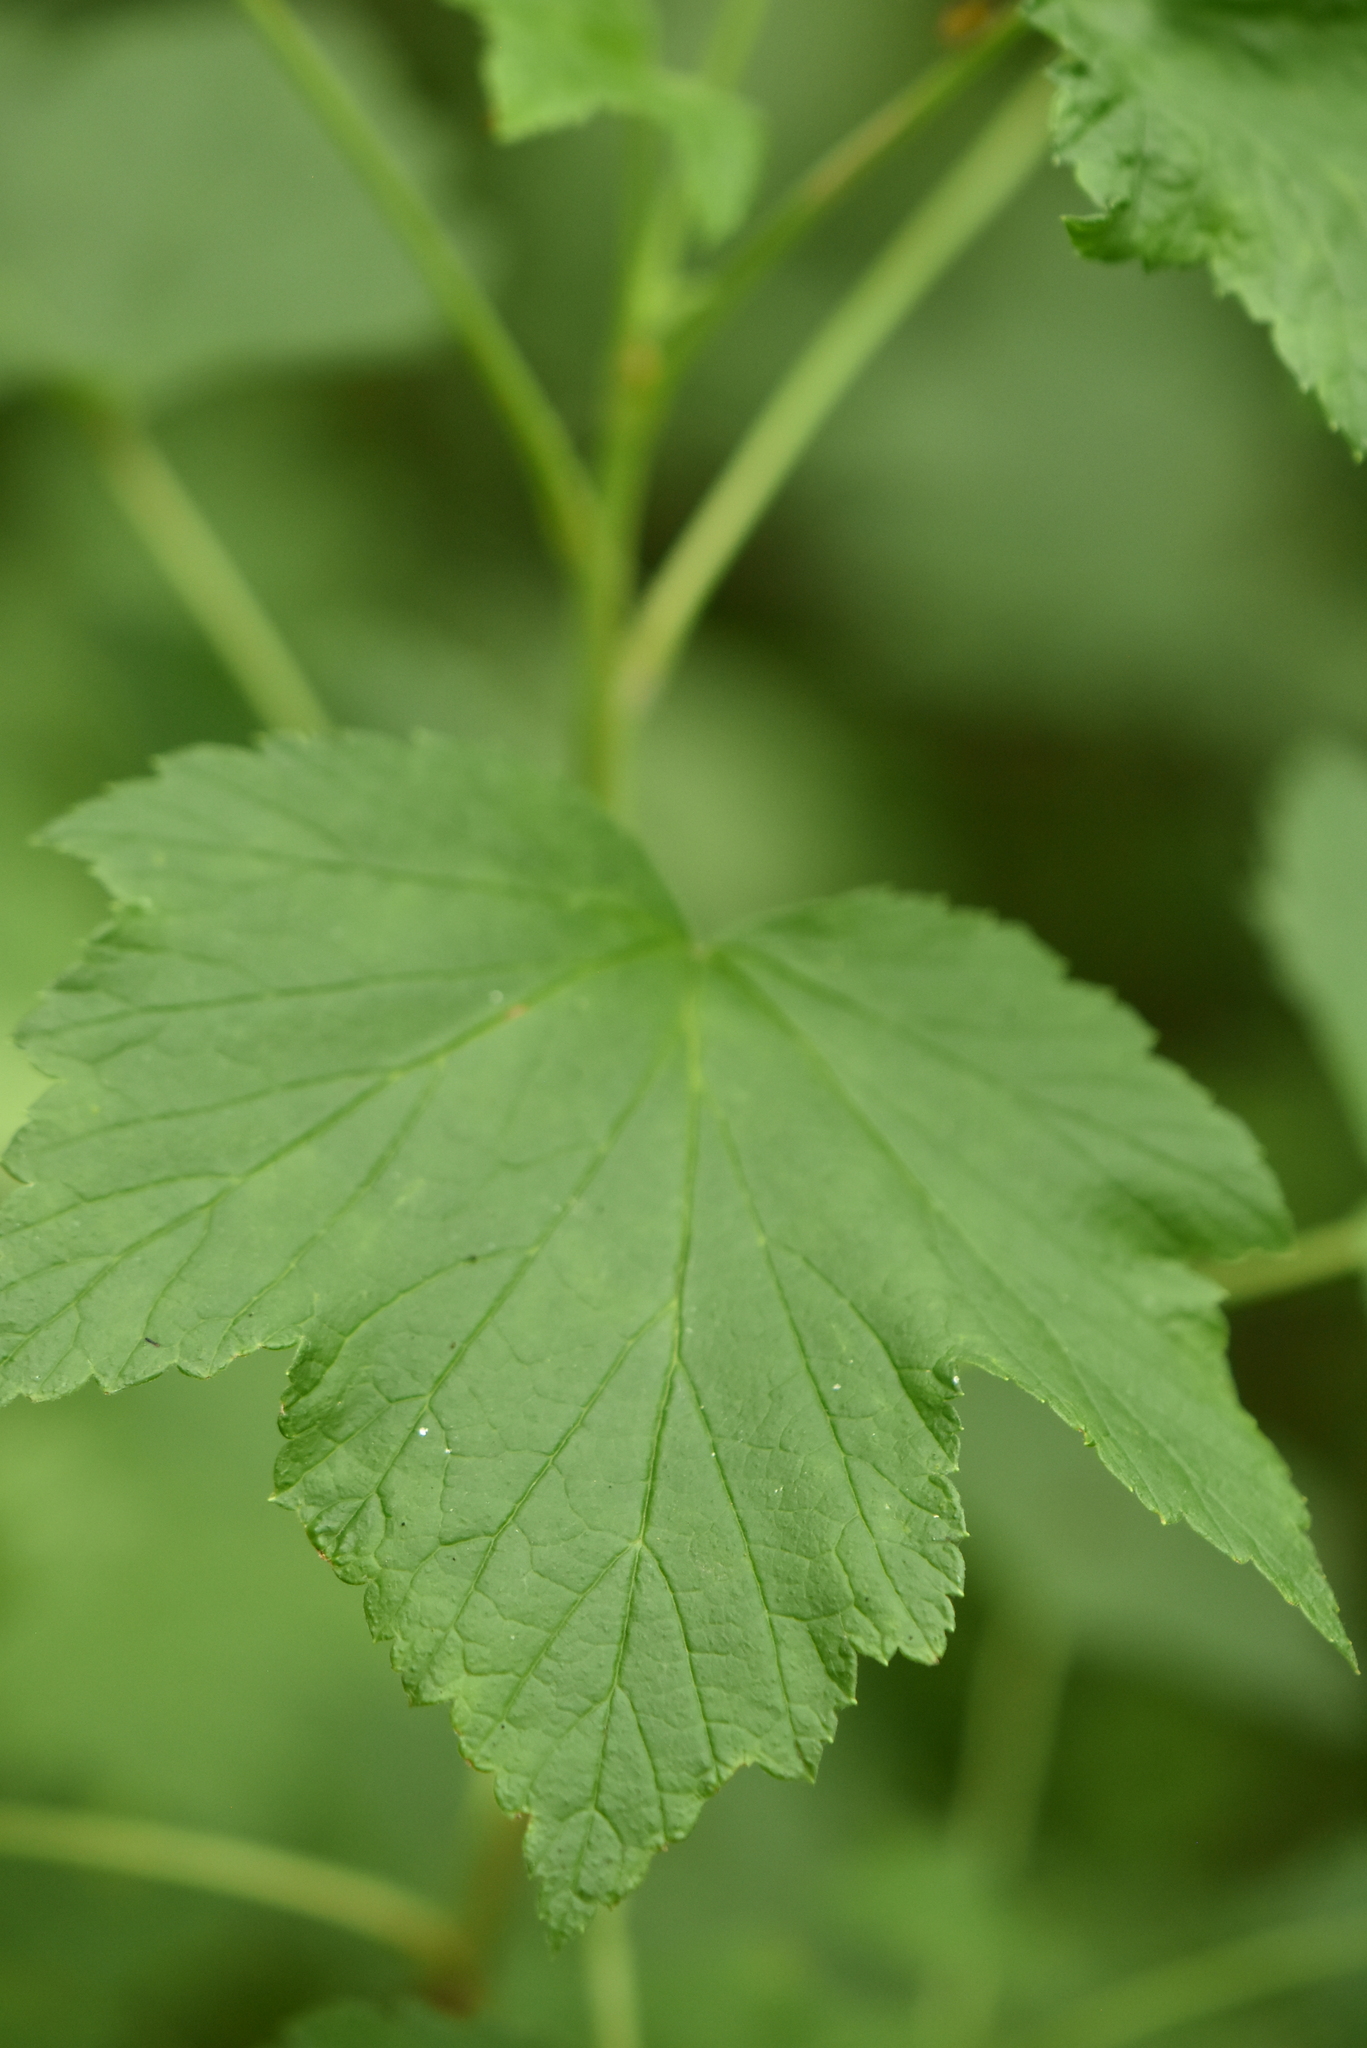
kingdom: Plantae
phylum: Tracheophyta
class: Magnoliopsida
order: Saxifragales
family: Grossulariaceae
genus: Ribes
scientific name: Ribes nigrum
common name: Black currant
